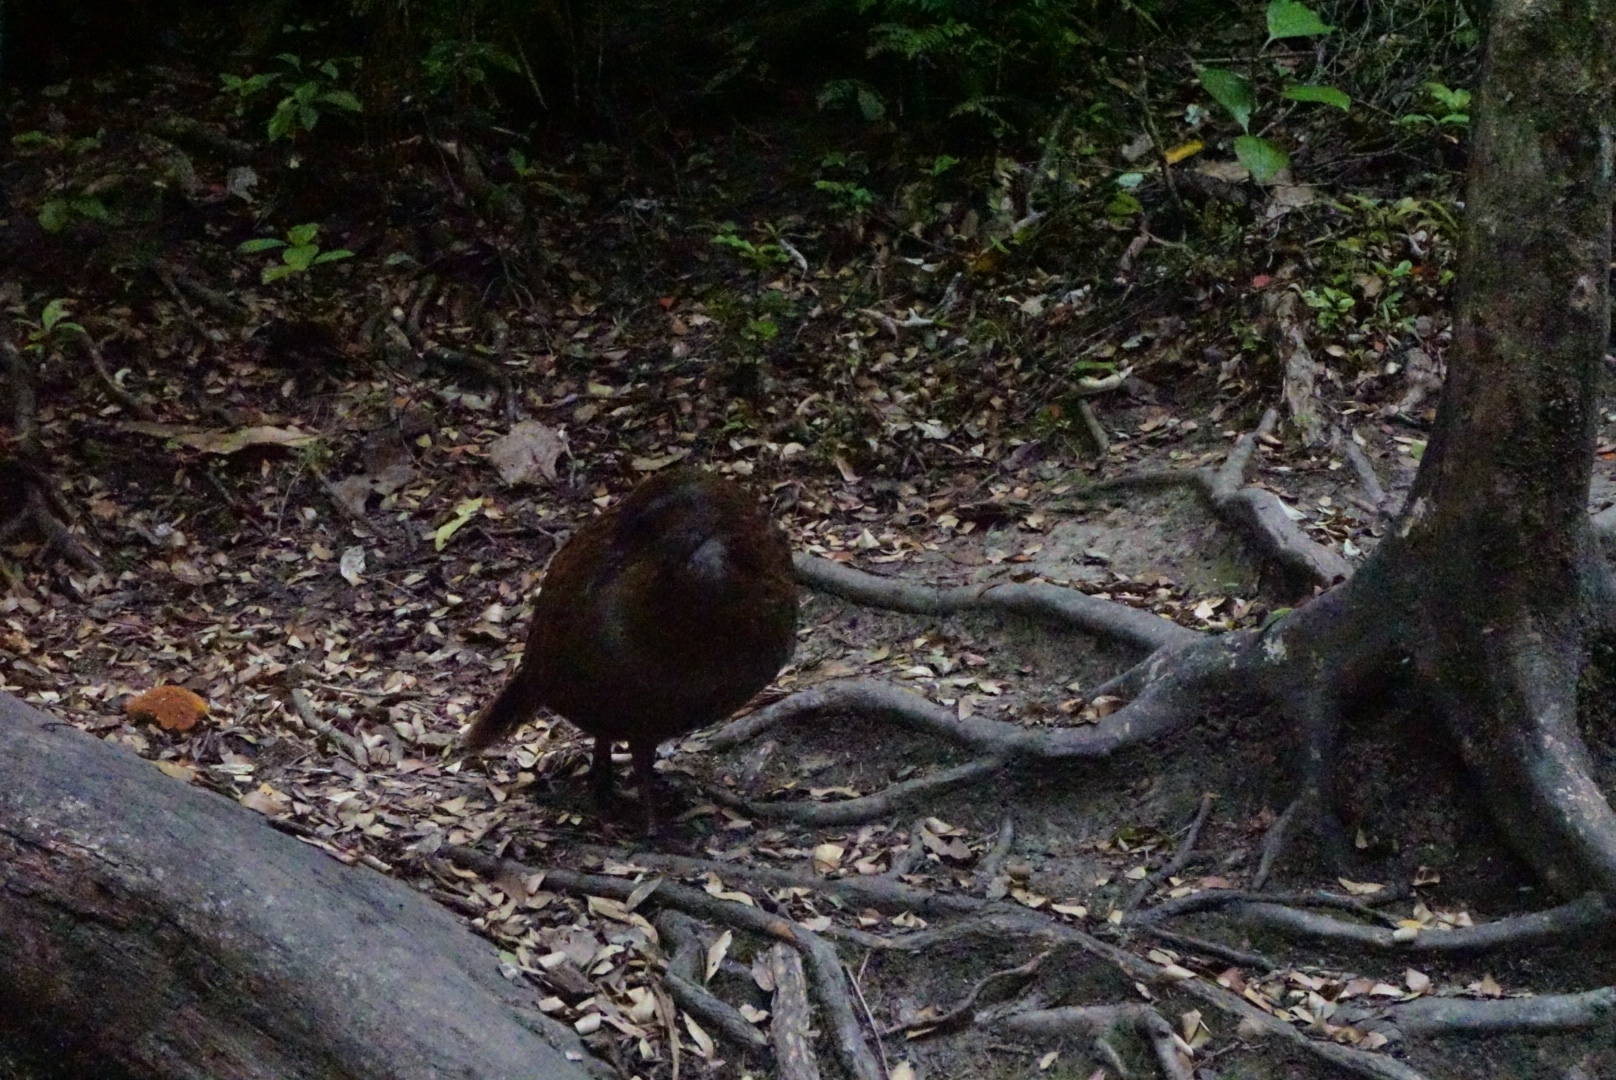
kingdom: Animalia
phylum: Chordata
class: Aves
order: Gruiformes
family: Rallidae
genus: Gallirallus
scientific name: Gallirallus
